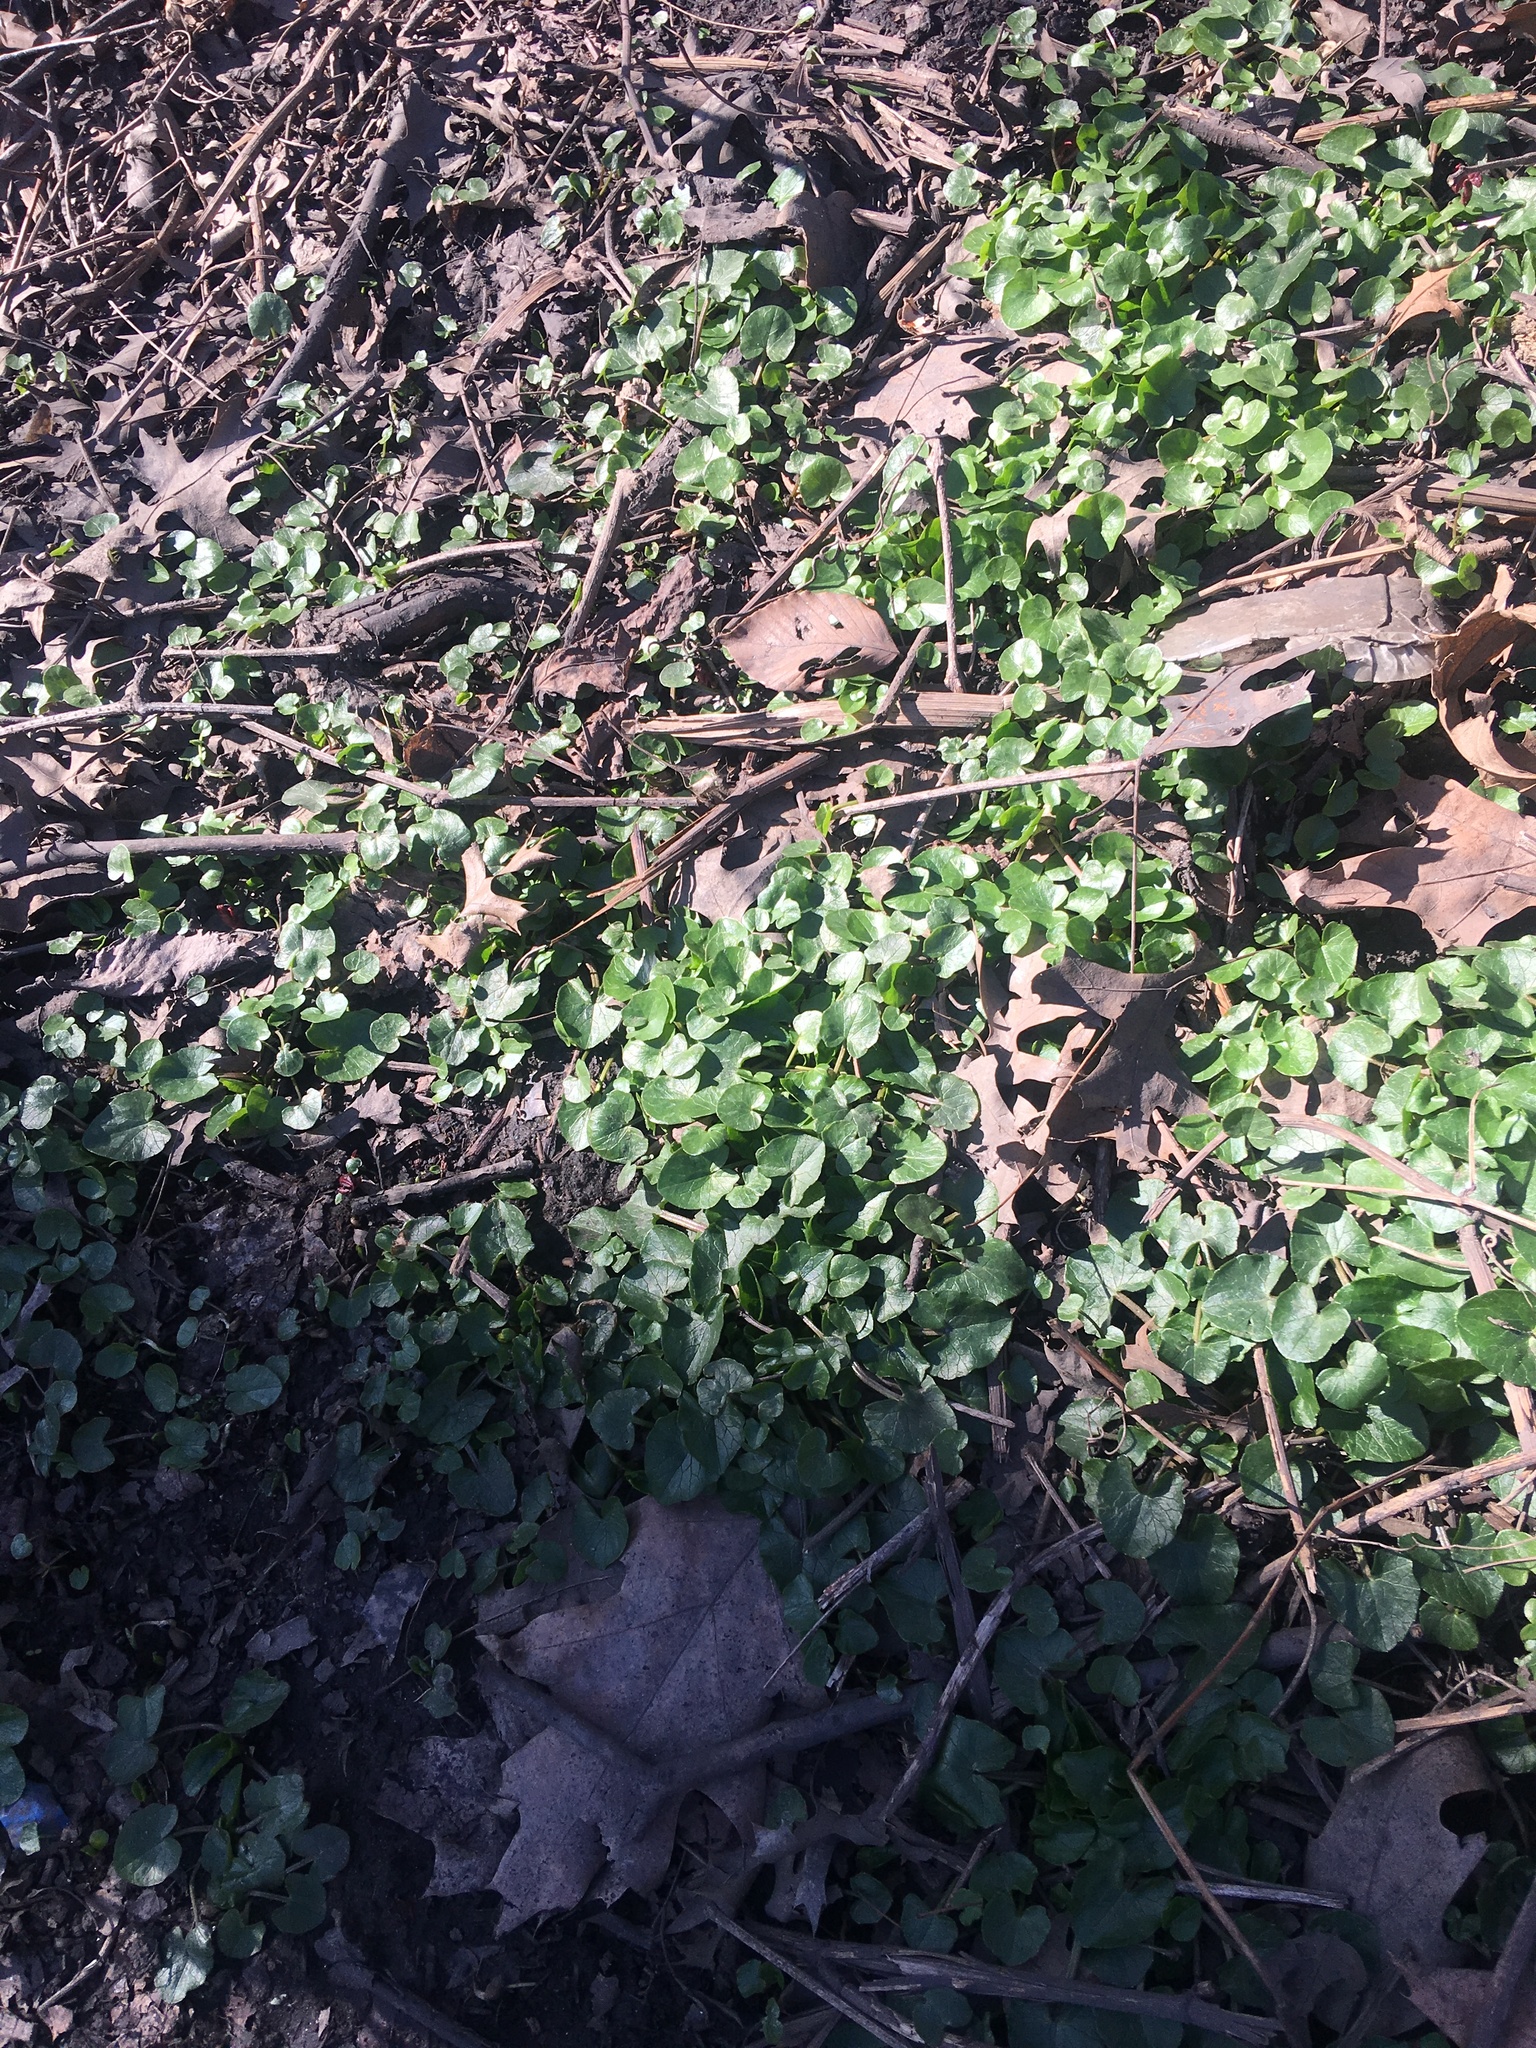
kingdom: Plantae
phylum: Tracheophyta
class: Magnoliopsida
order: Ranunculales
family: Ranunculaceae
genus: Ficaria
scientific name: Ficaria verna
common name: Lesser celandine
